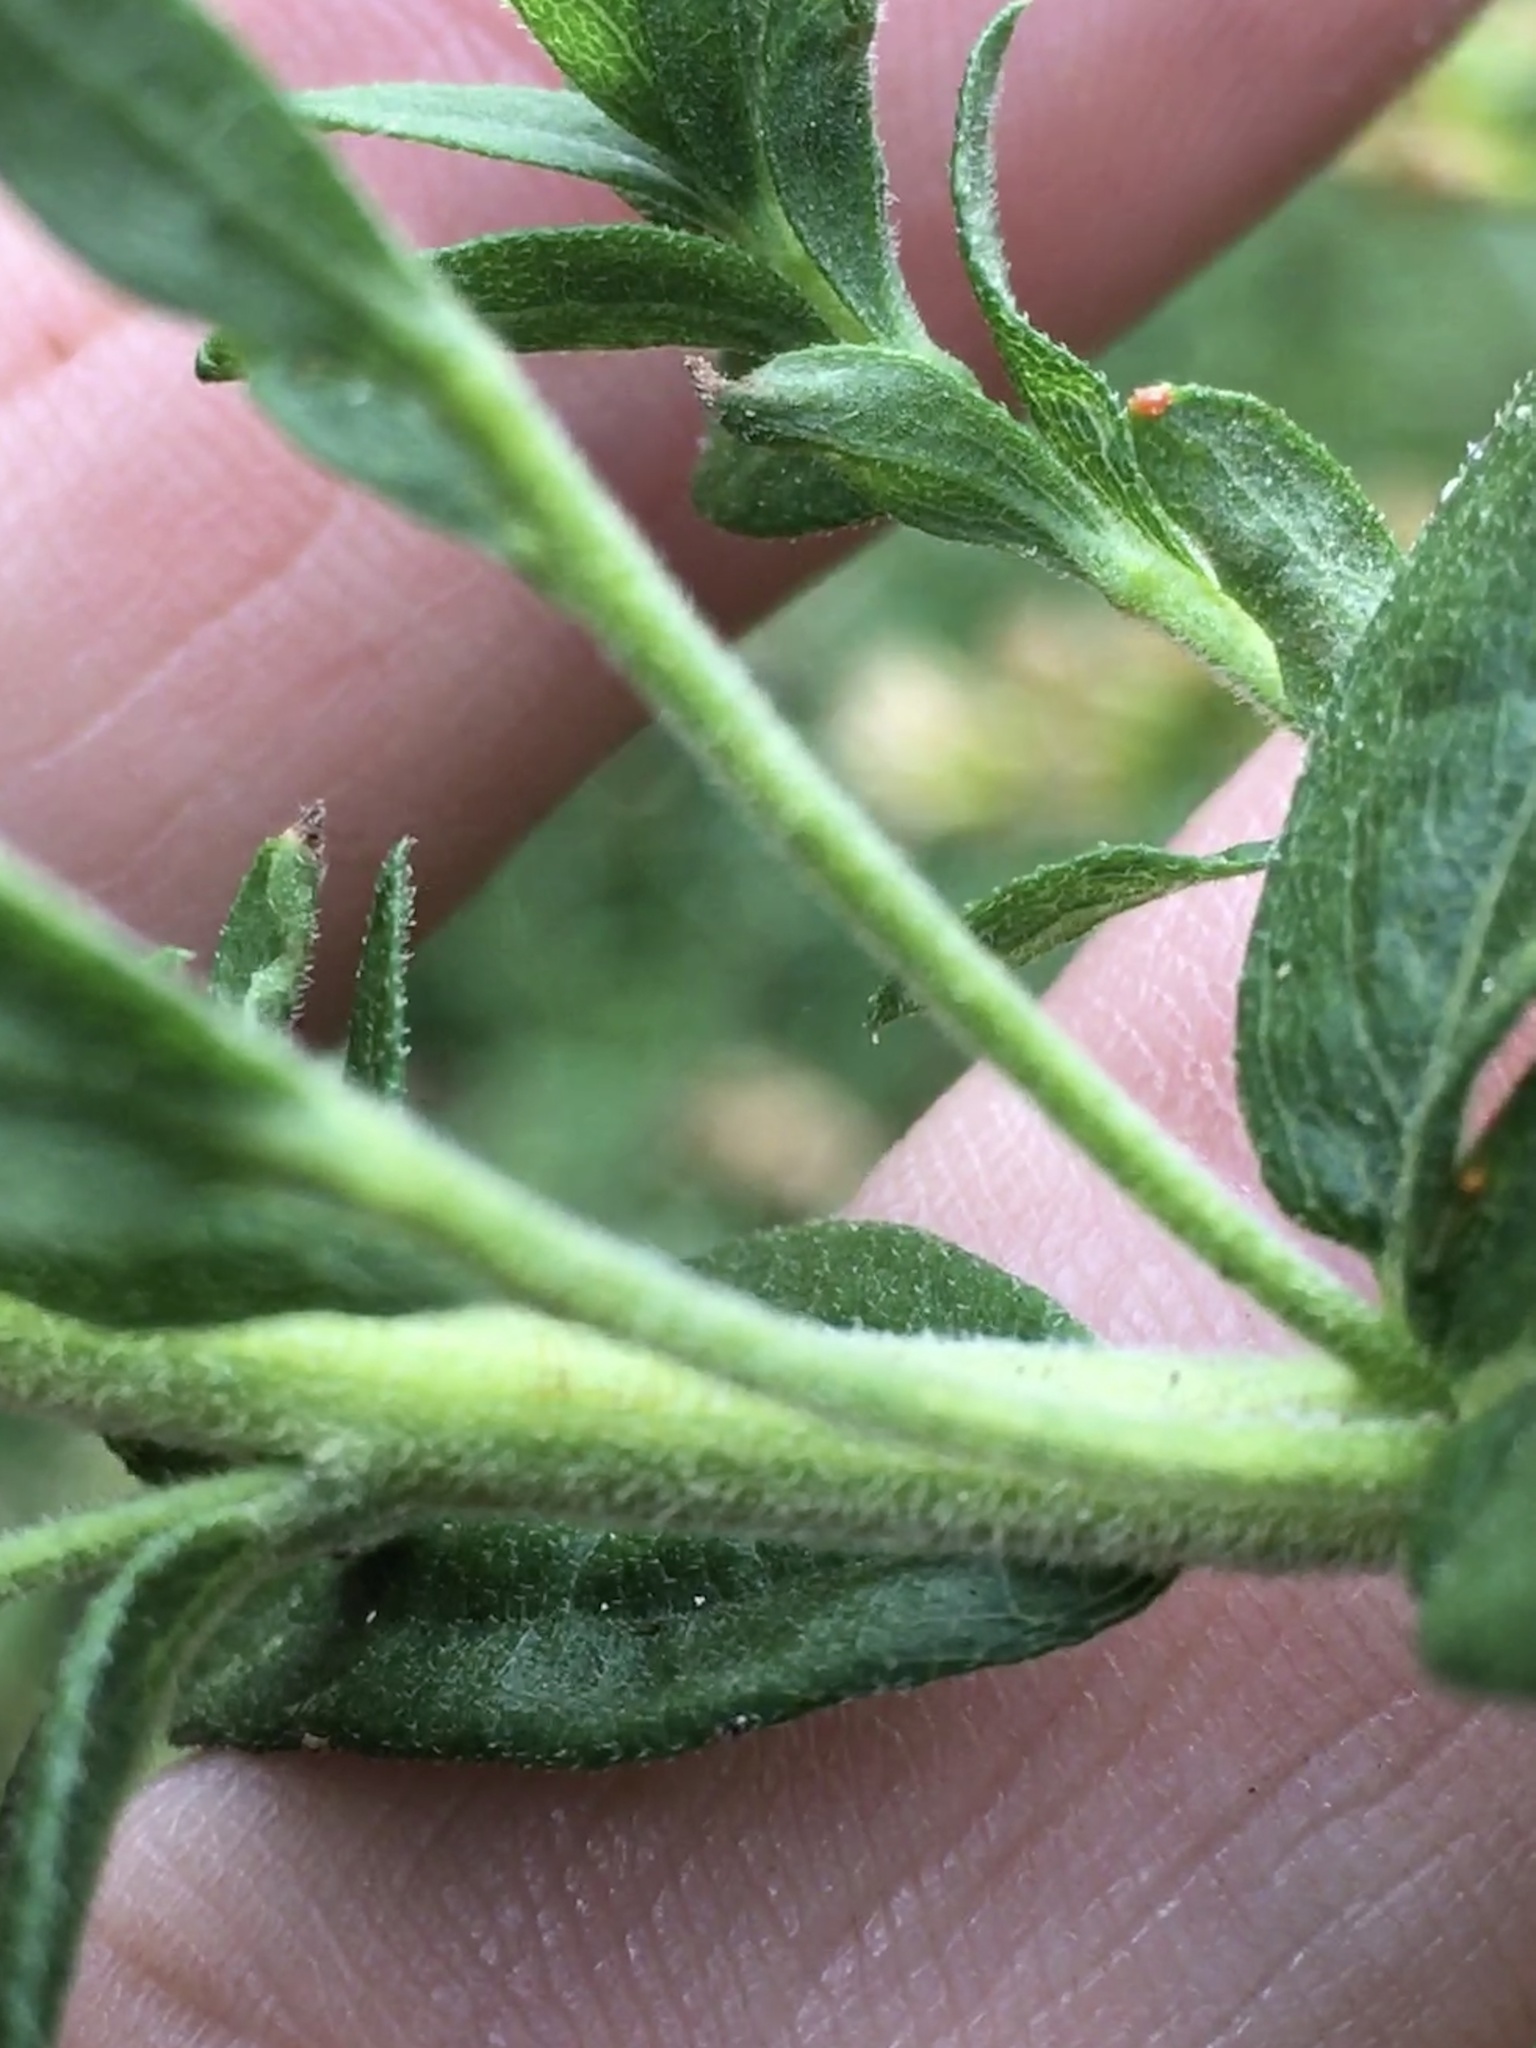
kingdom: Plantae
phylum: Tracheophyta
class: Magnoliopsida
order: Asterales
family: Asteraceae
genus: Solidago
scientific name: Solidago altissima
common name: Late goldenrod
